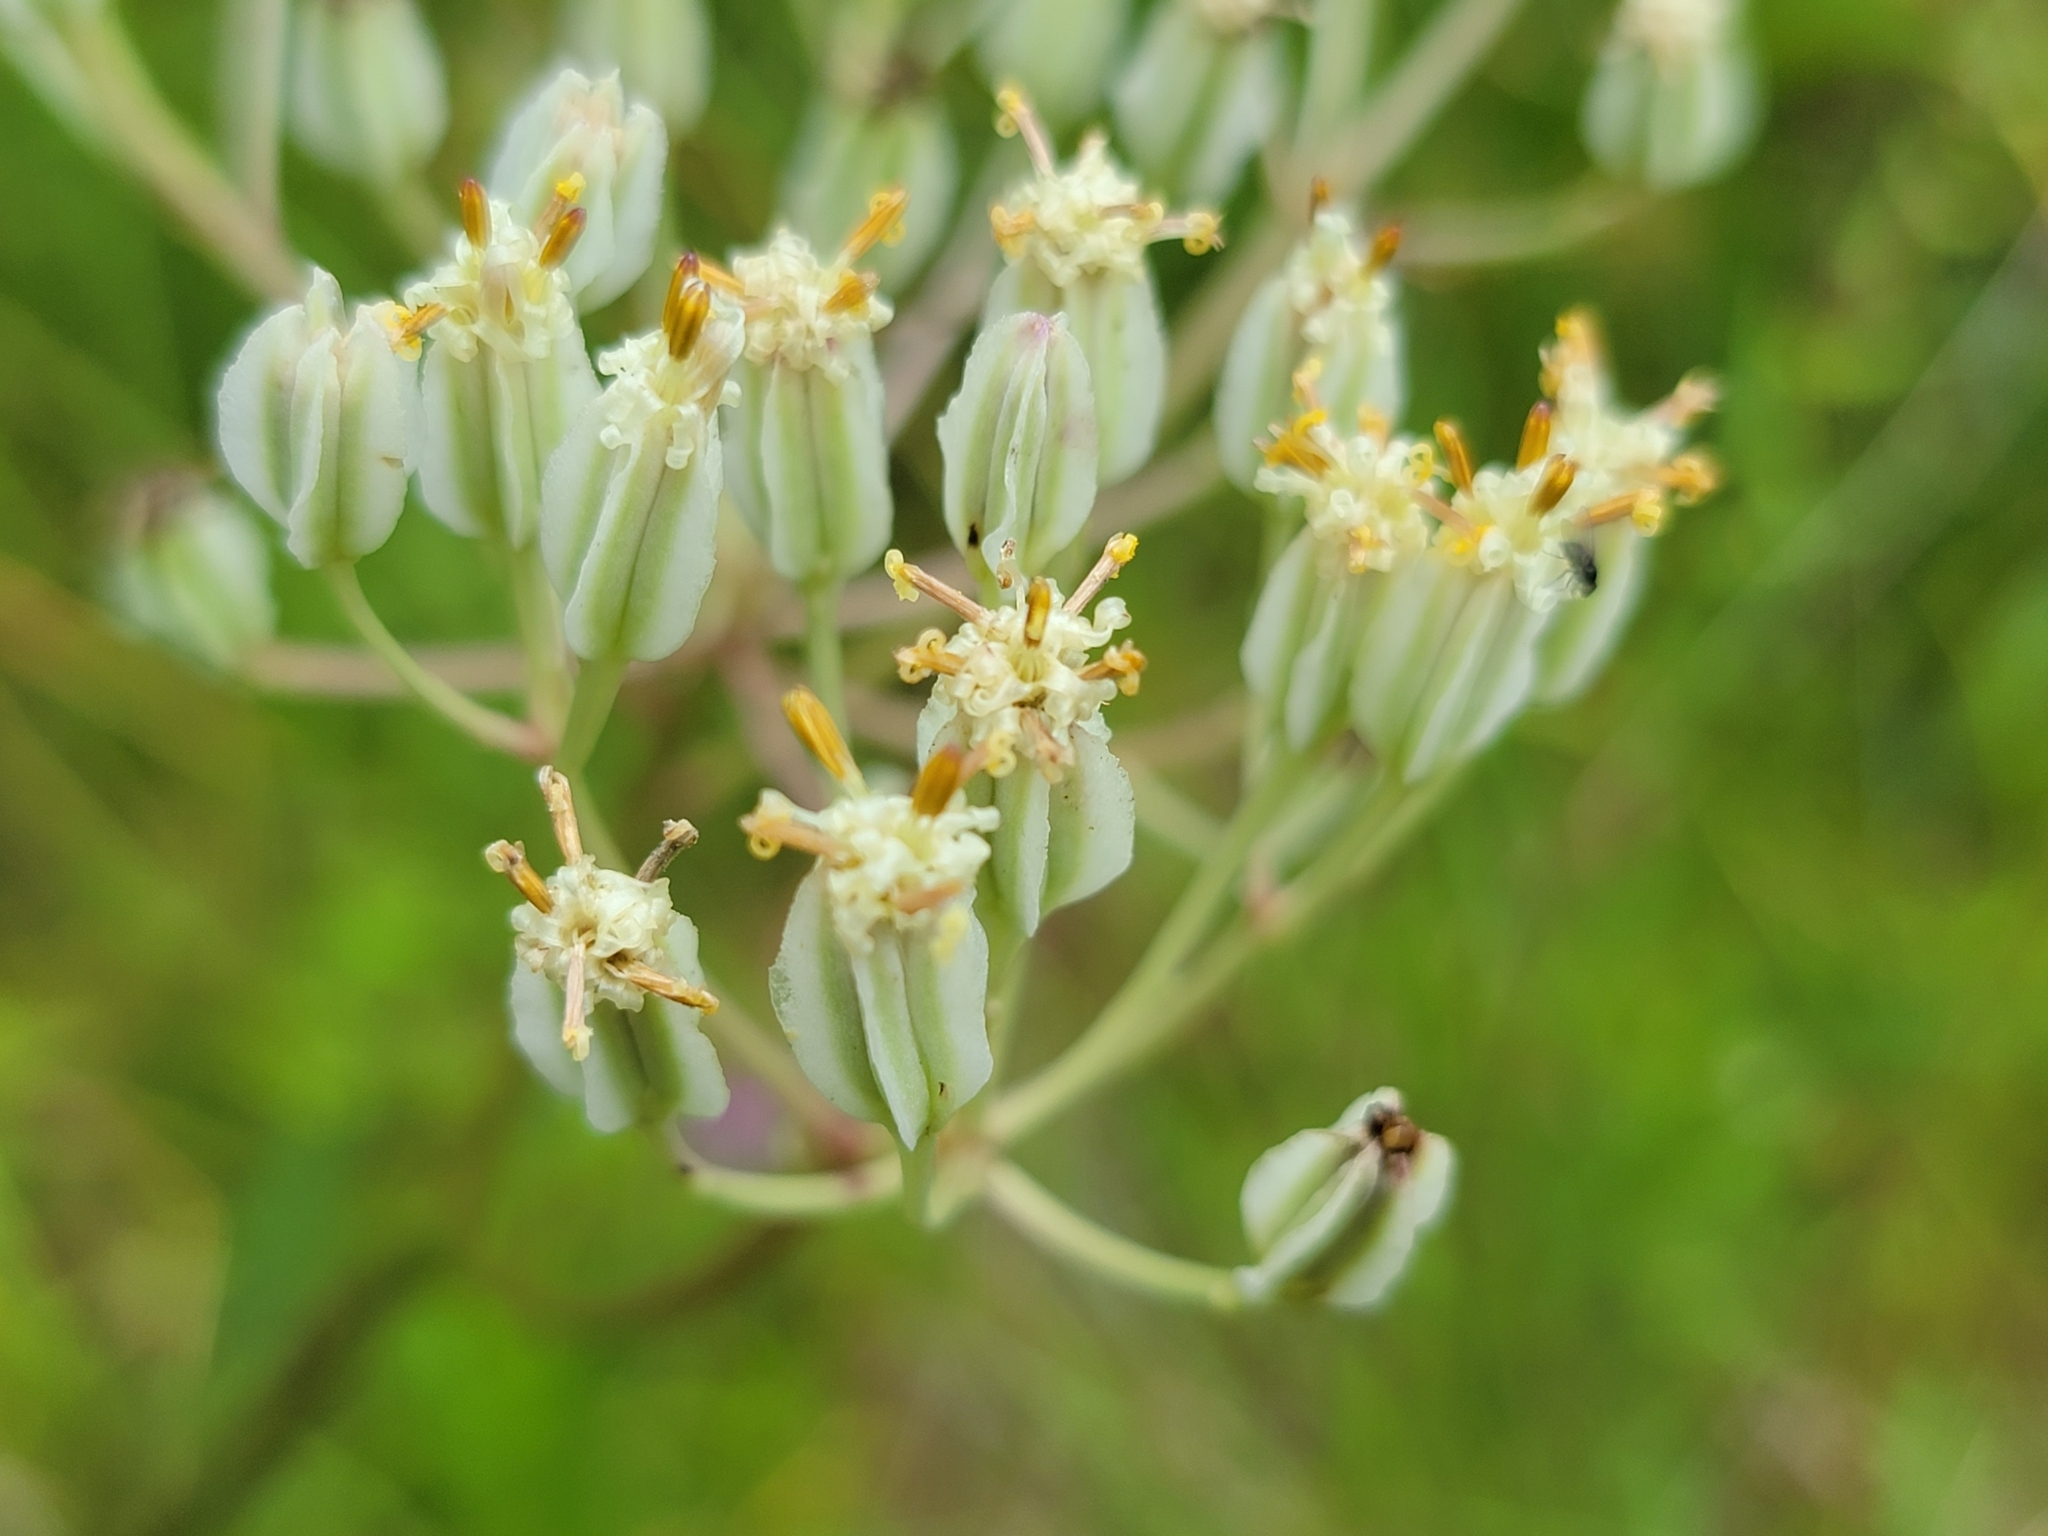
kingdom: Plantae
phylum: Tracheophyta
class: Magnoliopsida
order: Asterales
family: Asteraceae
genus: Arnoglossum
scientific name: Arnoglossum plantagineum
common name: Groove-stemmed indian-plantain
